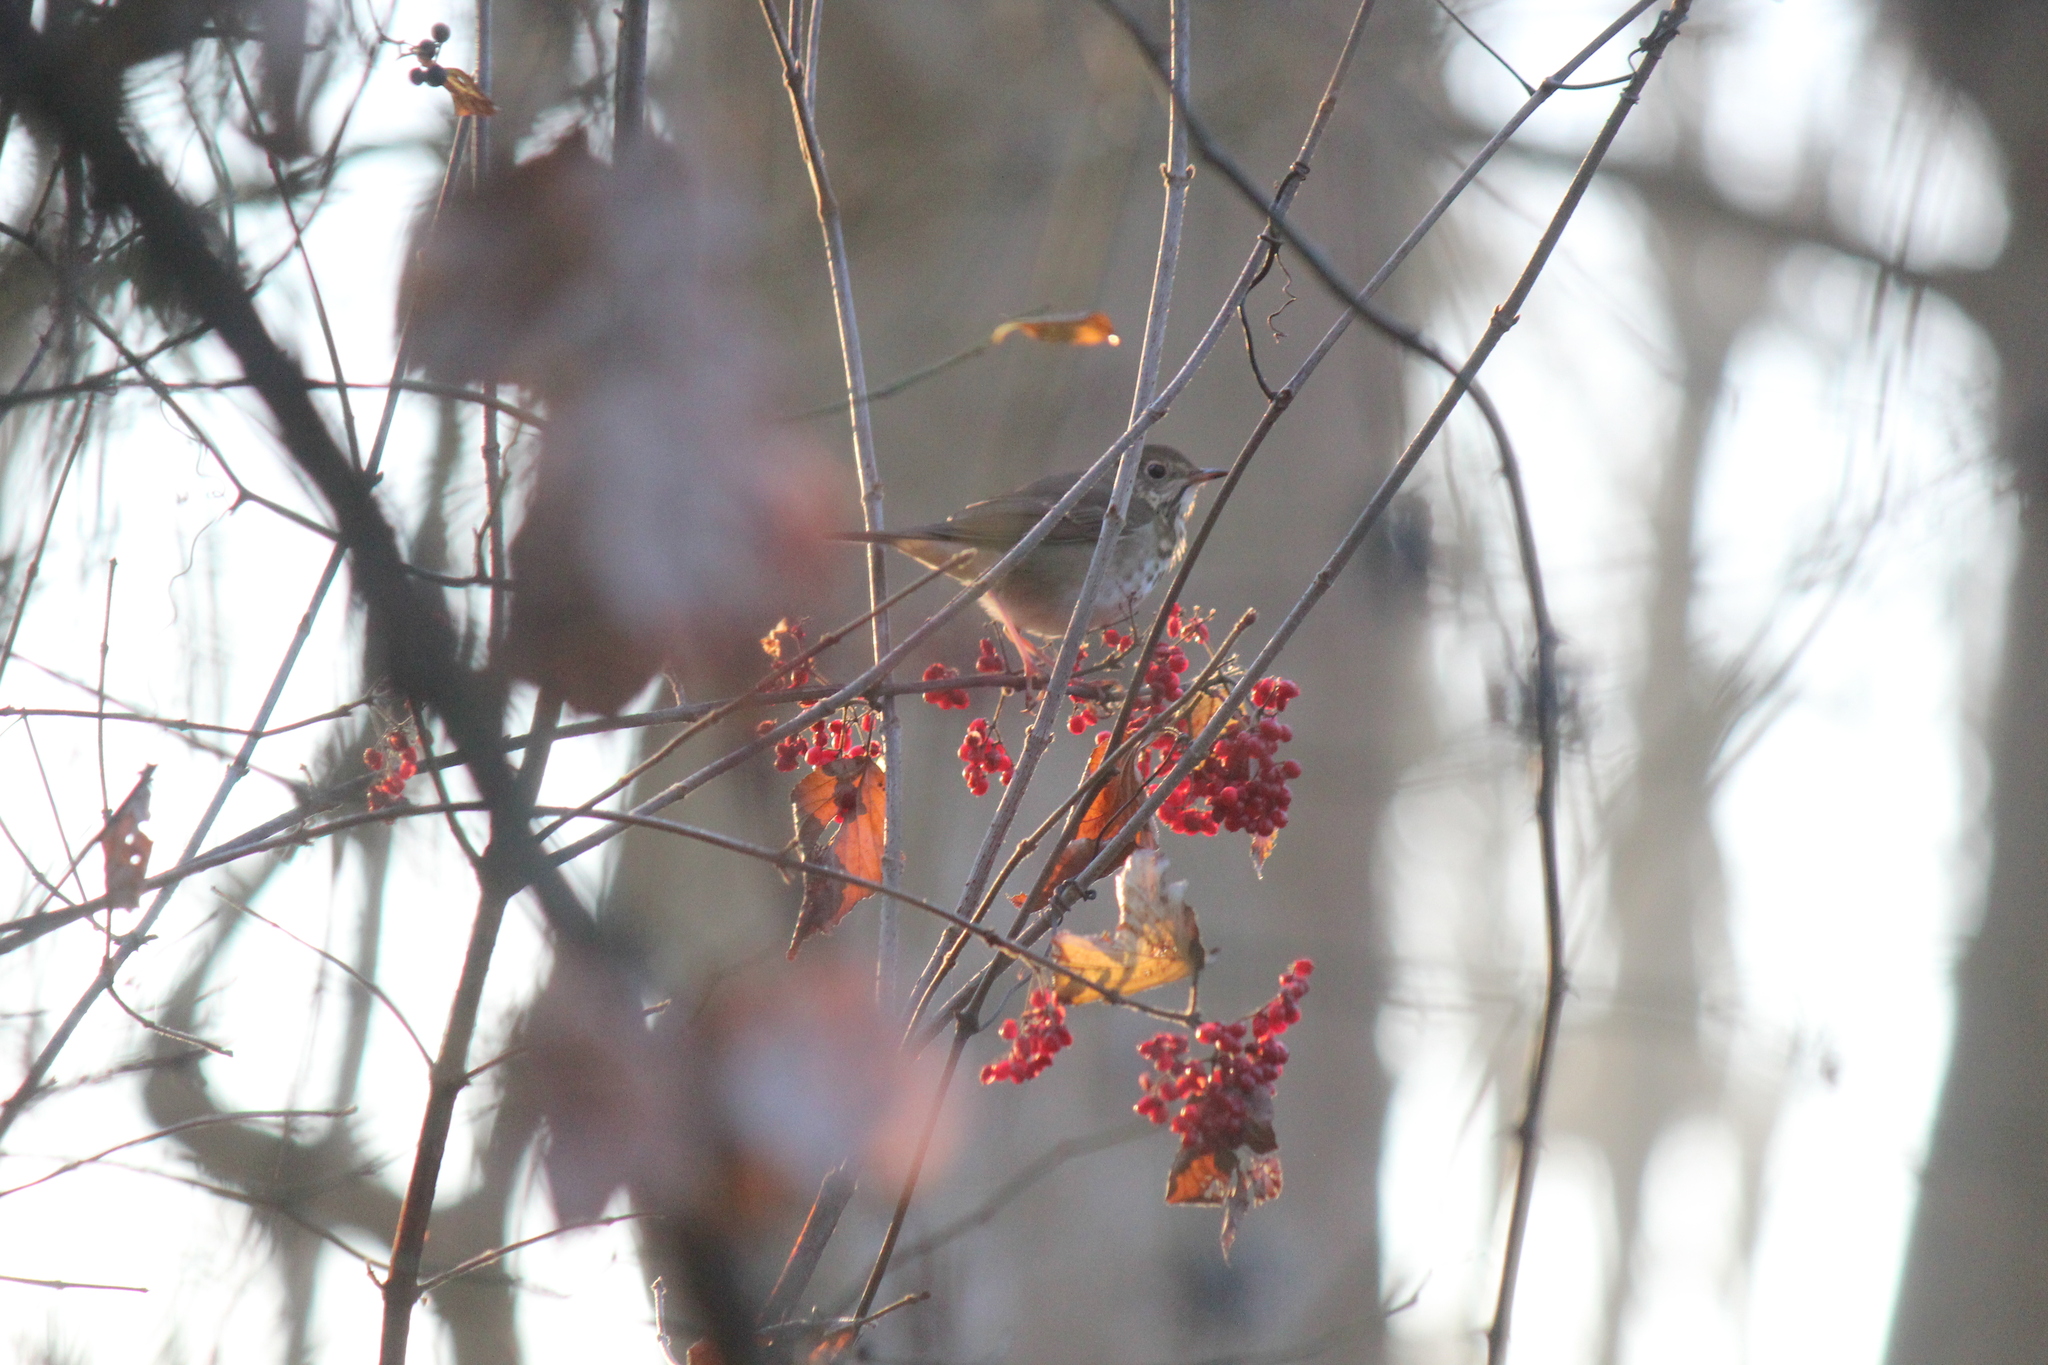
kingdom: Animalia
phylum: Chordata
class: Aves
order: Passeriformes
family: Turdidae
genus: Catharus
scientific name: Catharus guttatus
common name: Hermit thrush
